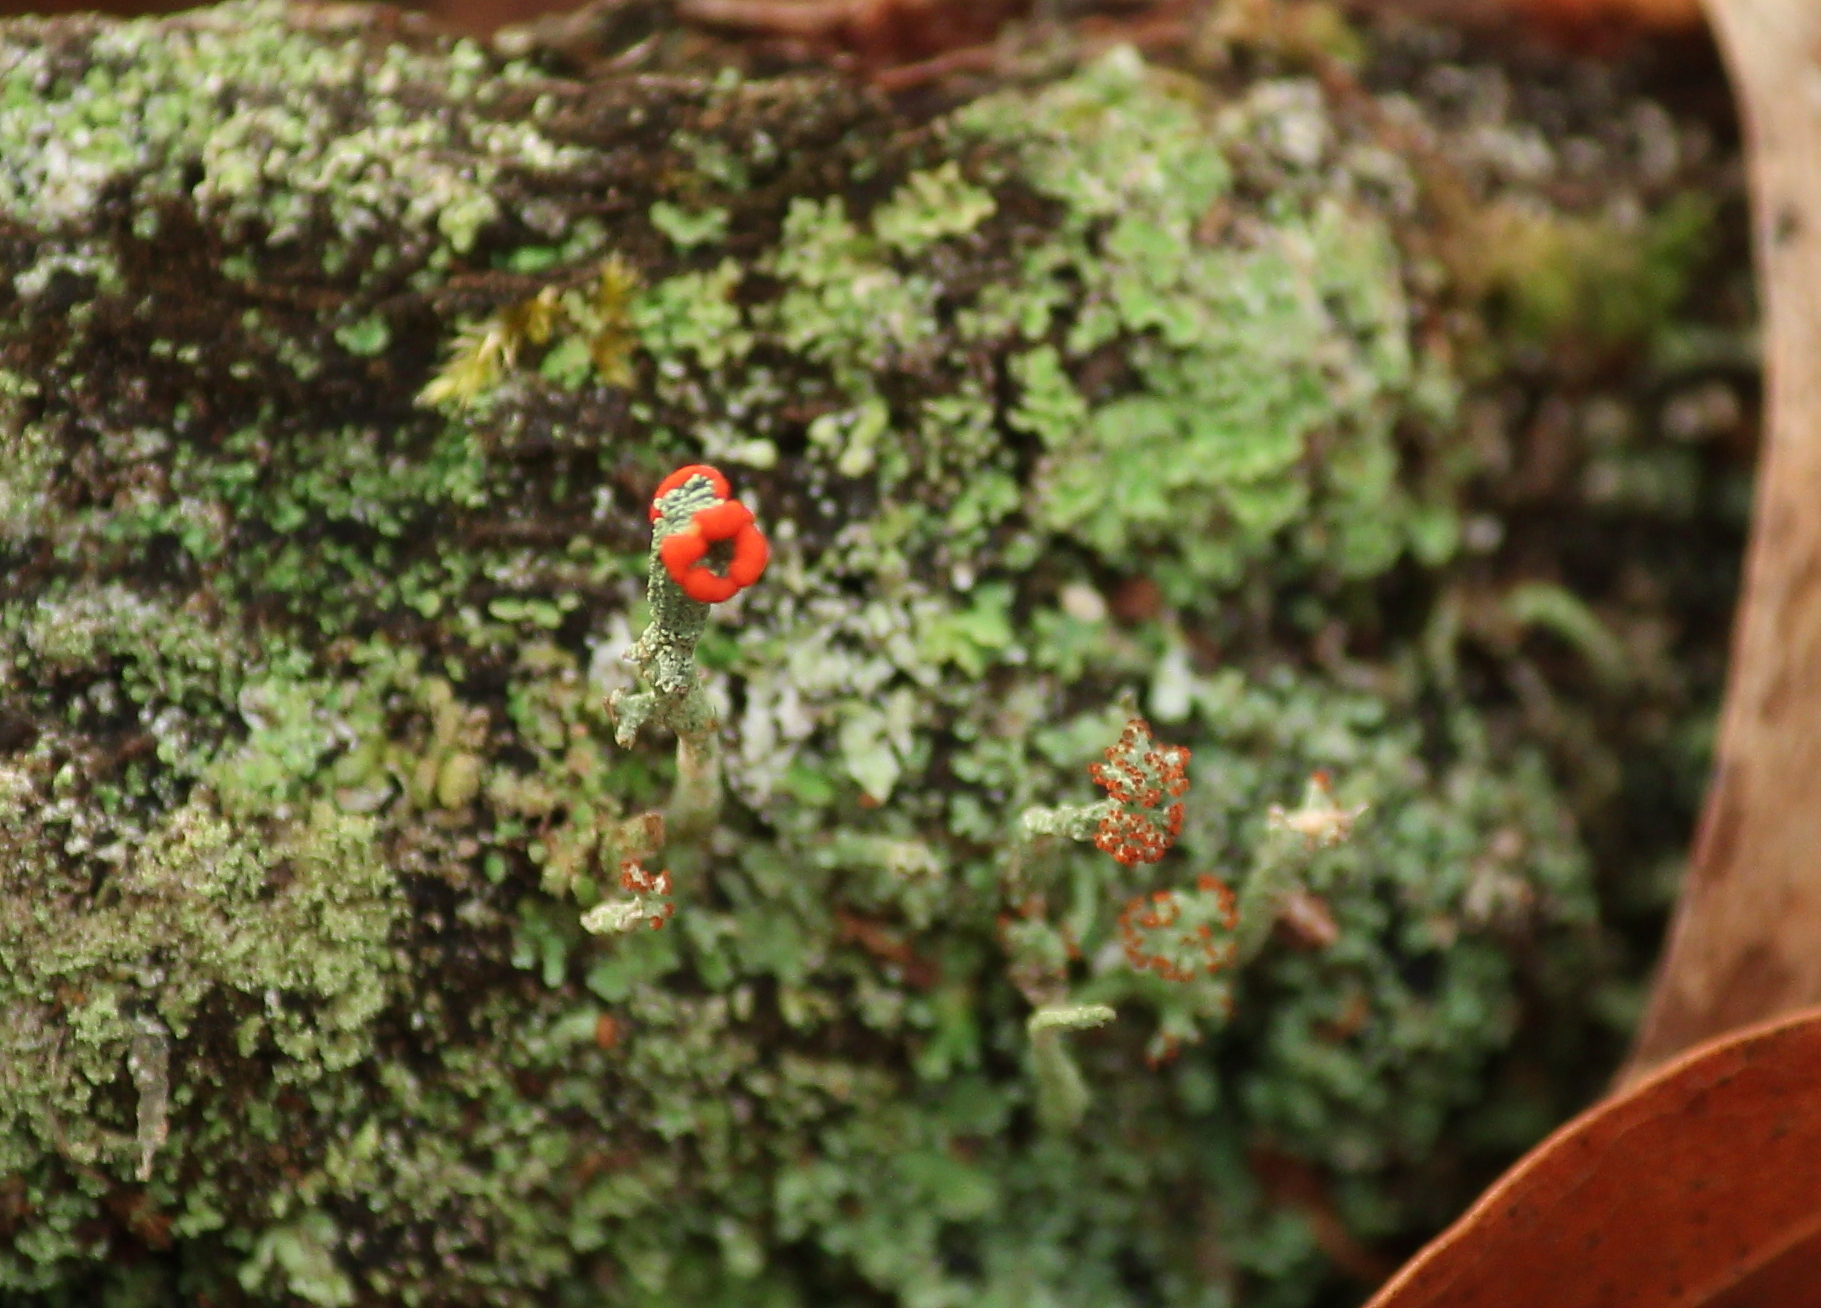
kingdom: Fungi
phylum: Ascomycota
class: Lecanoromycetes
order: Lecanorales
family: Cladoniaceae
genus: Cladonia
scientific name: Cladonia cristatella
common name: British soldier lichen
